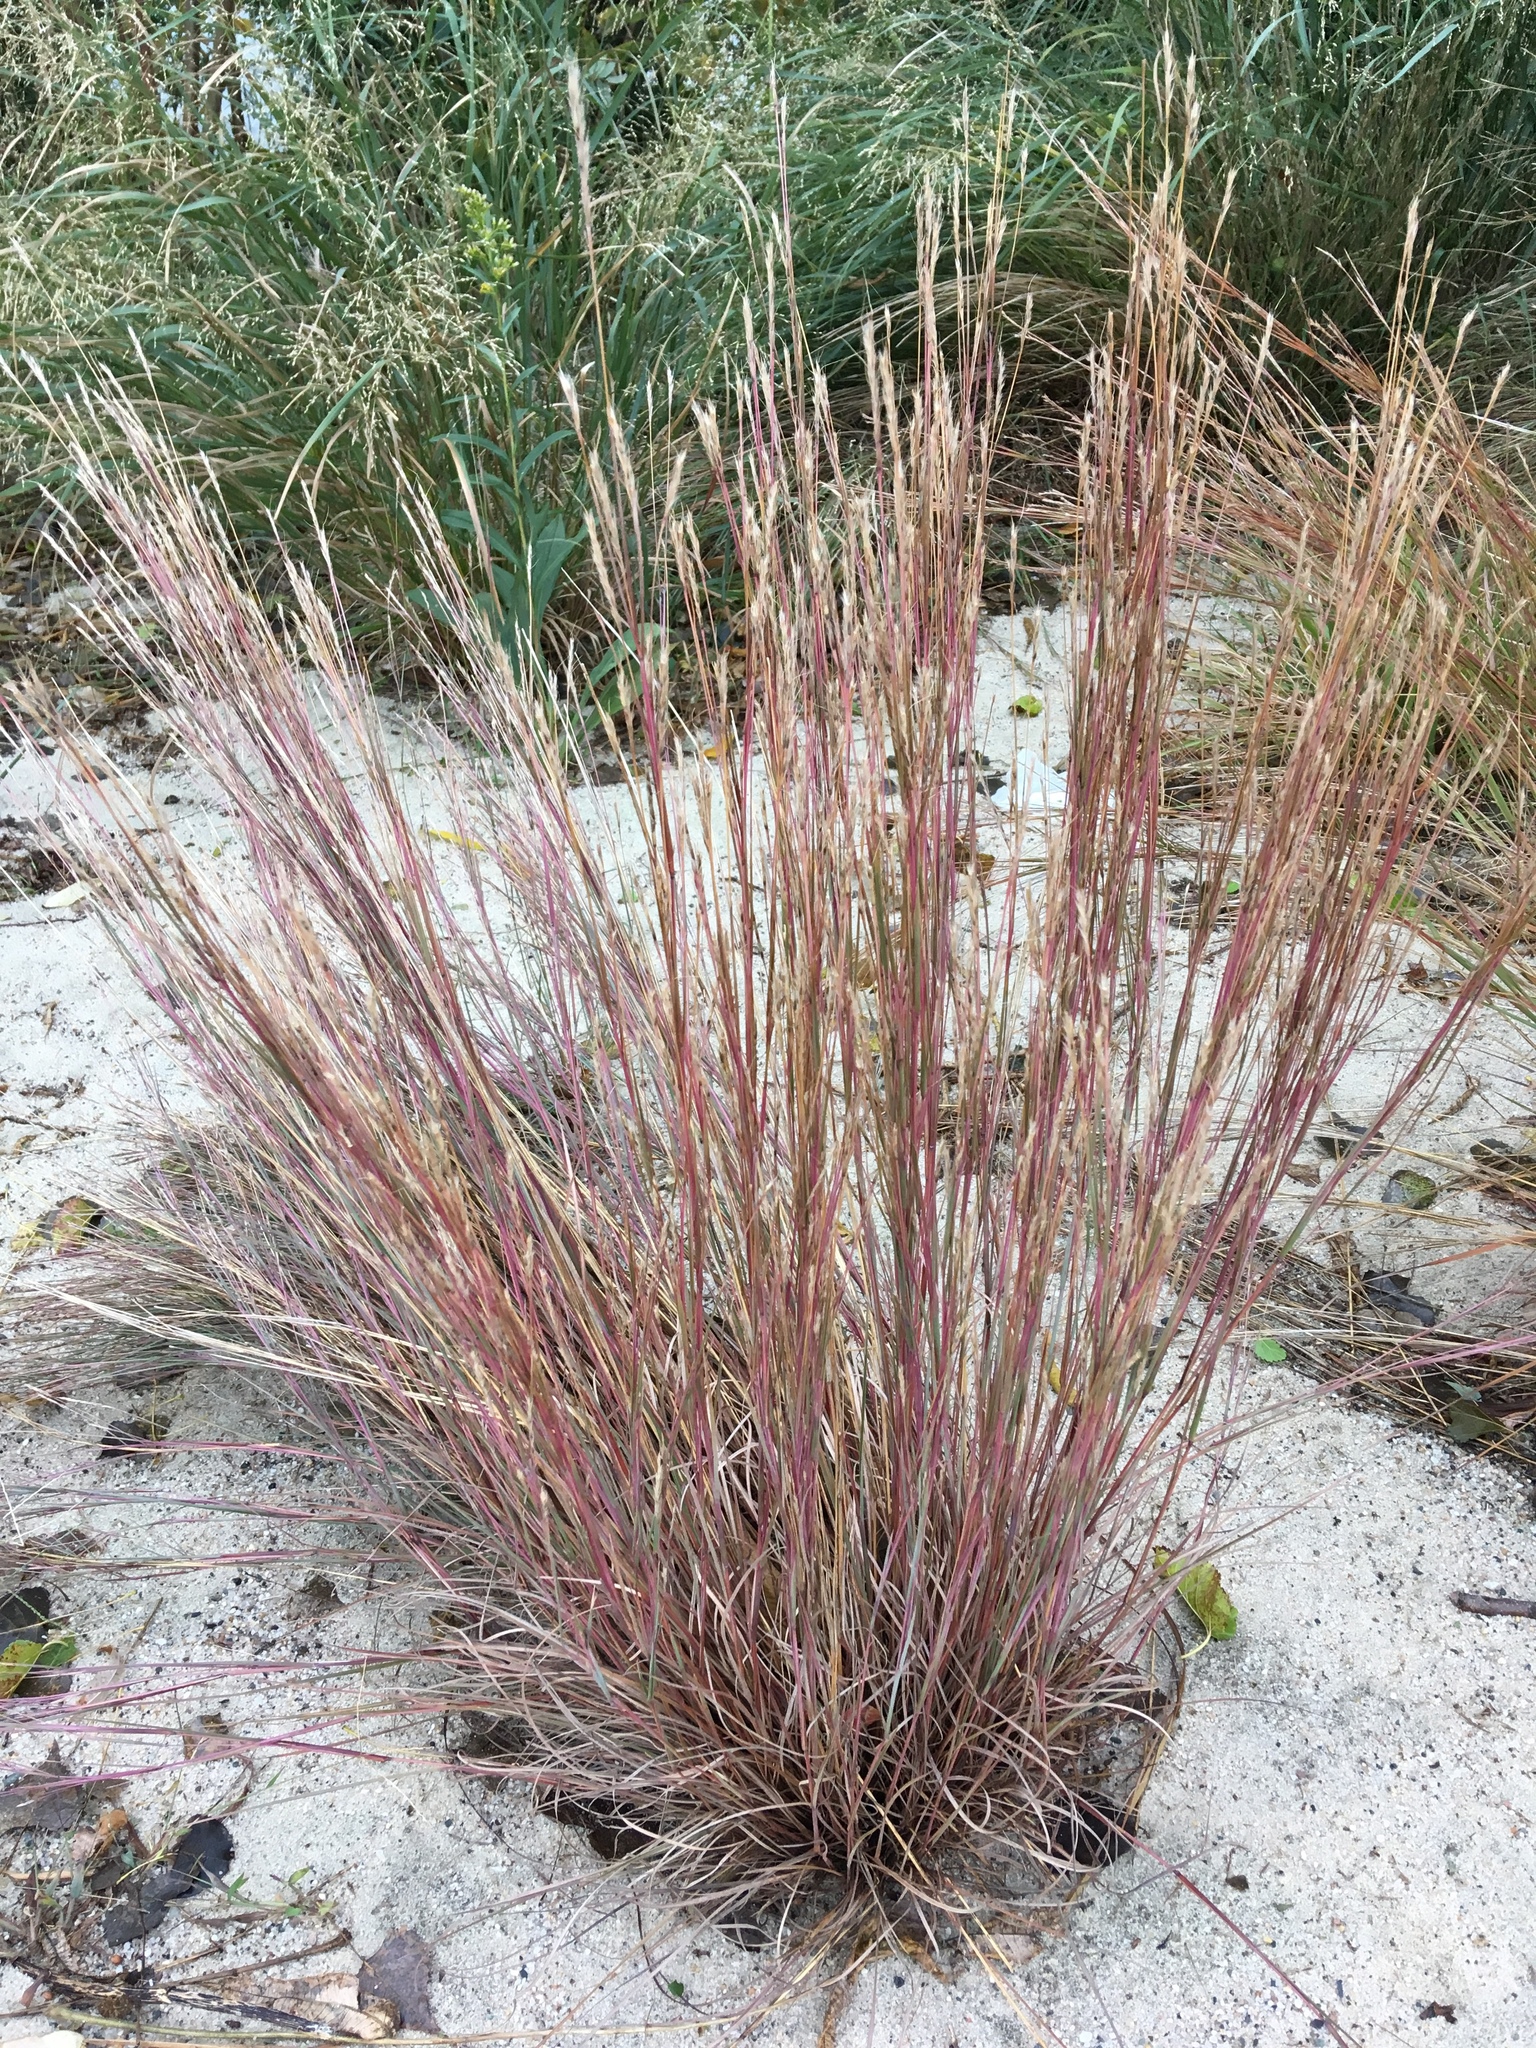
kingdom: Plantae
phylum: Tracheophyta
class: Liliopsida
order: Poales
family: Poaceae
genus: Schizachyrium
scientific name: Schizachyrium scoparium
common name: Little bluestem
